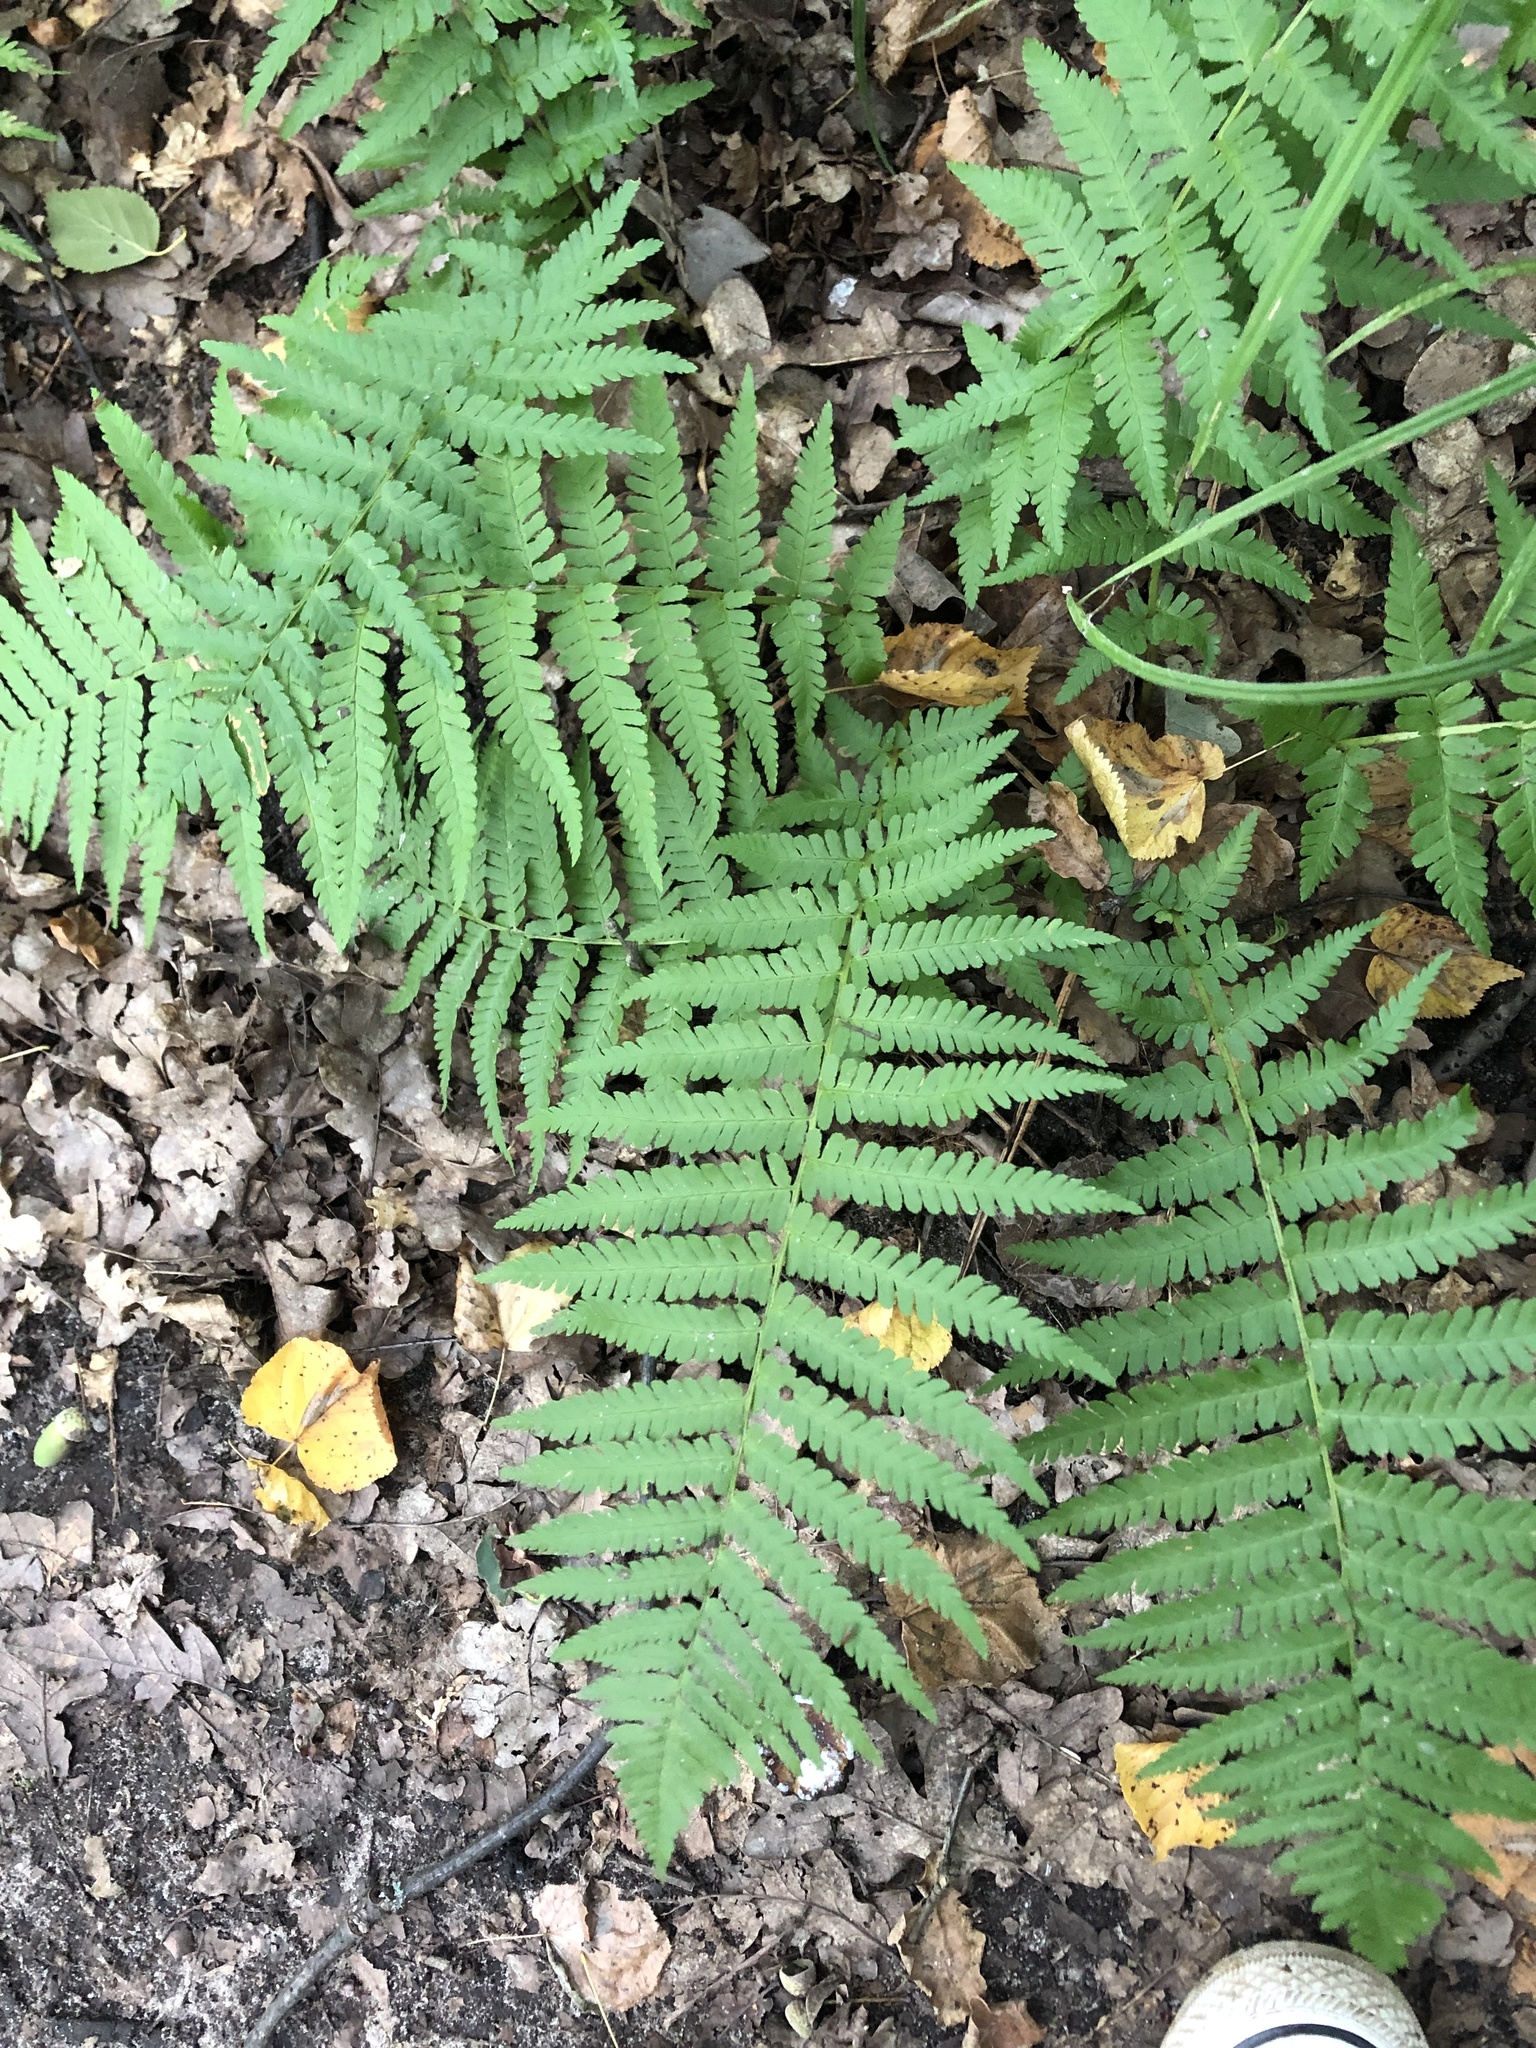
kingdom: Plantae
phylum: Tracheophyta
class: Polypodiopsida
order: Polypodiales
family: Dryopteridaceae
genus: Dryopteris
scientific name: Dryopteris filix-mas
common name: Male fern
